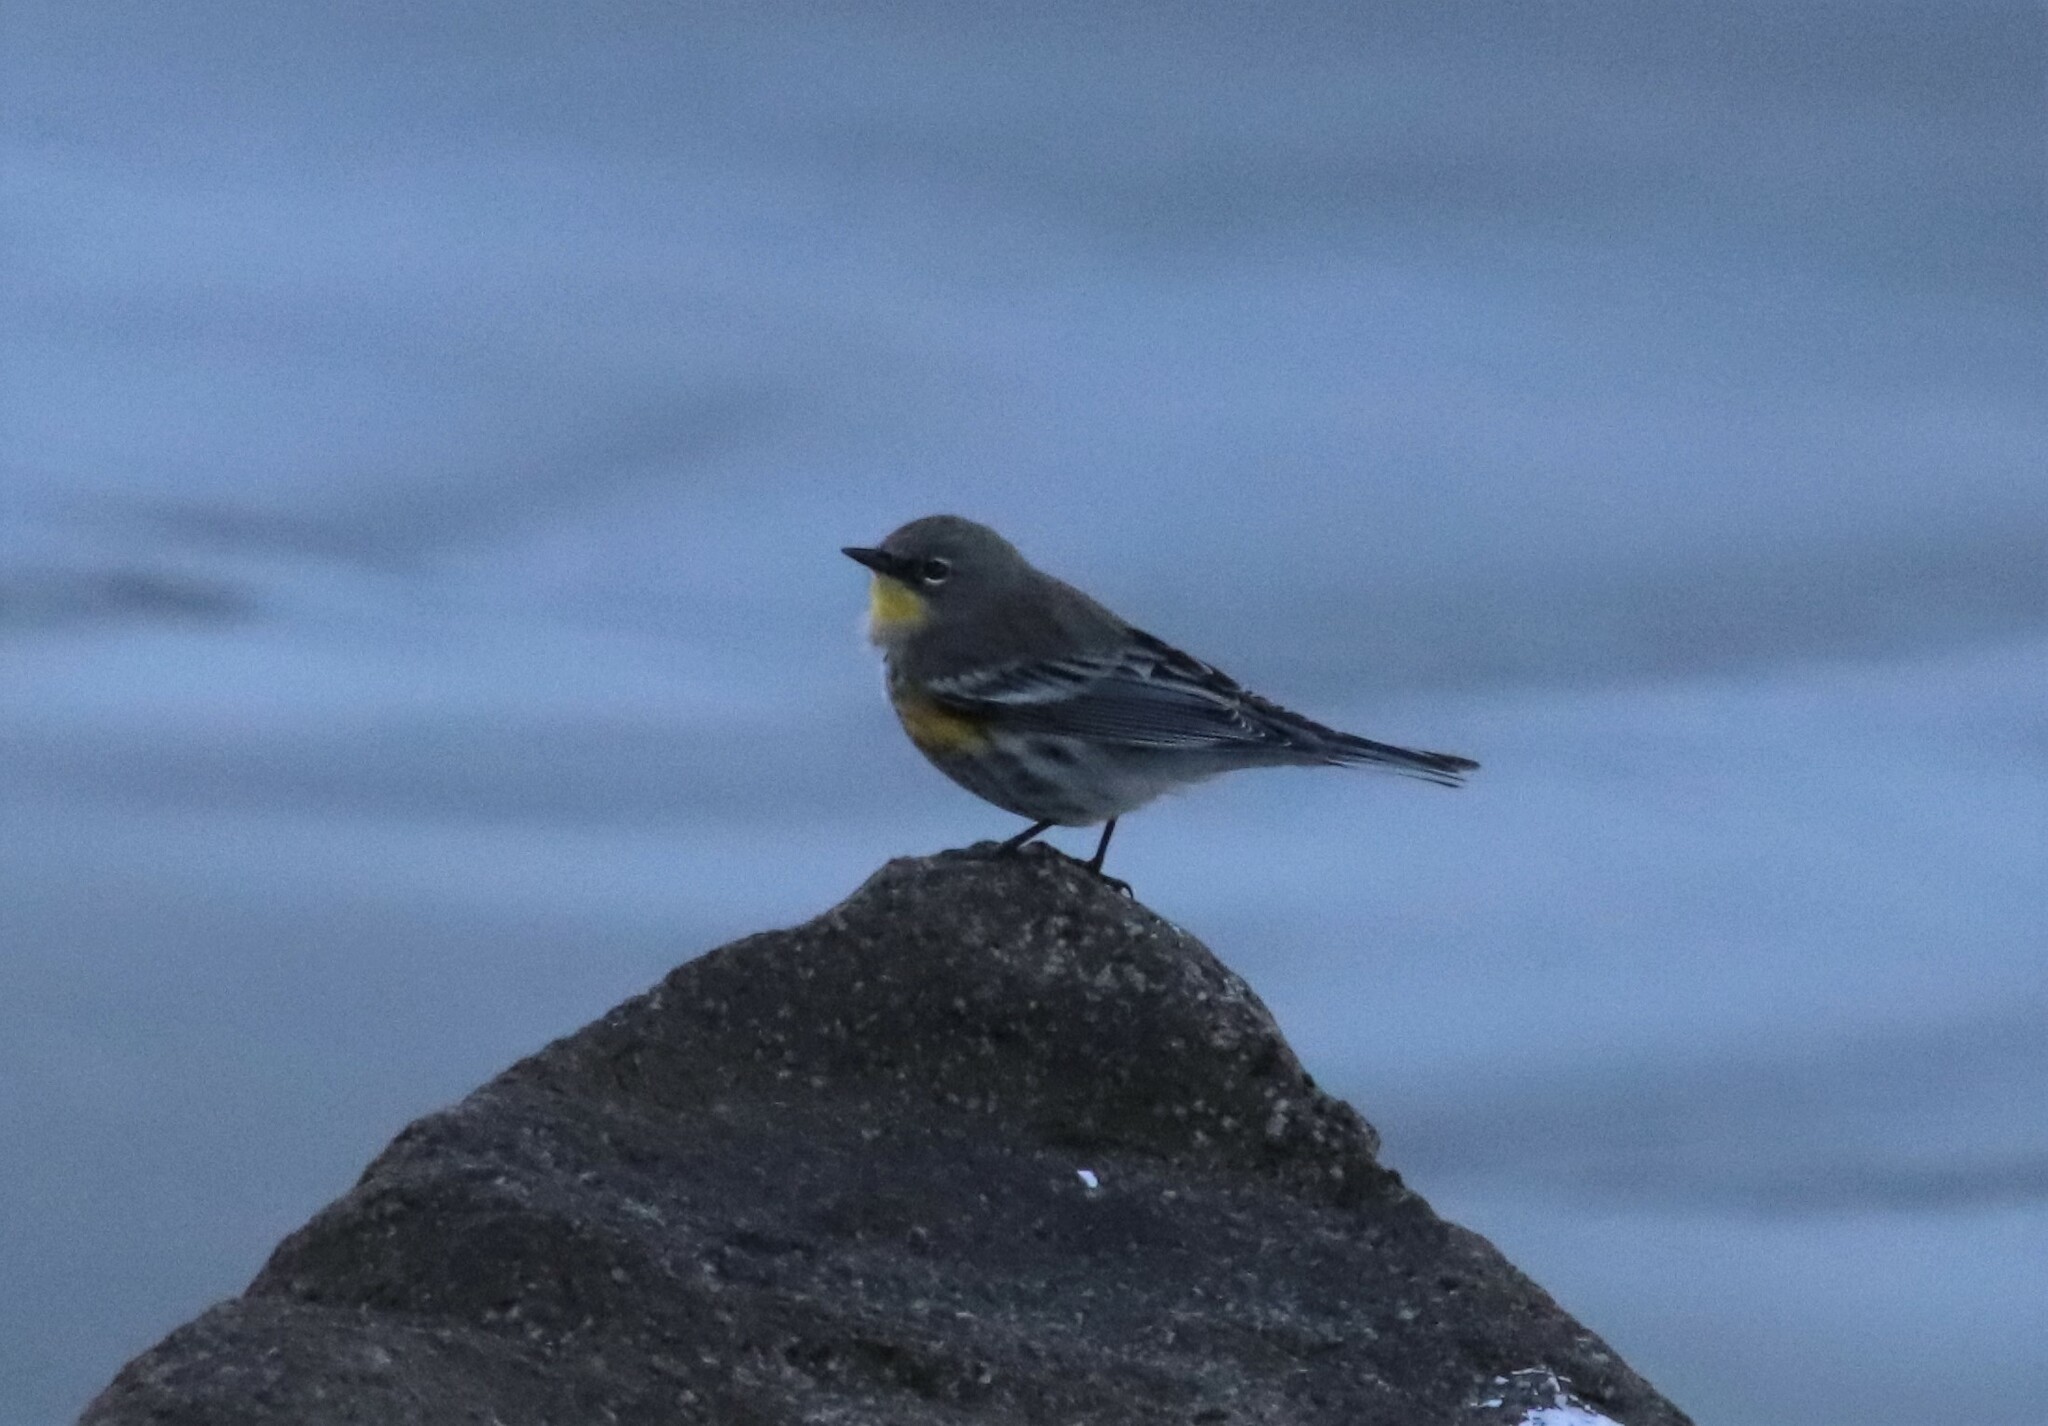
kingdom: Animalia
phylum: Chordata
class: Aves
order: Passeriformes
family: Parulidae
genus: Setophaga
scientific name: Setophaga auduboni
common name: Audubon's warbler
